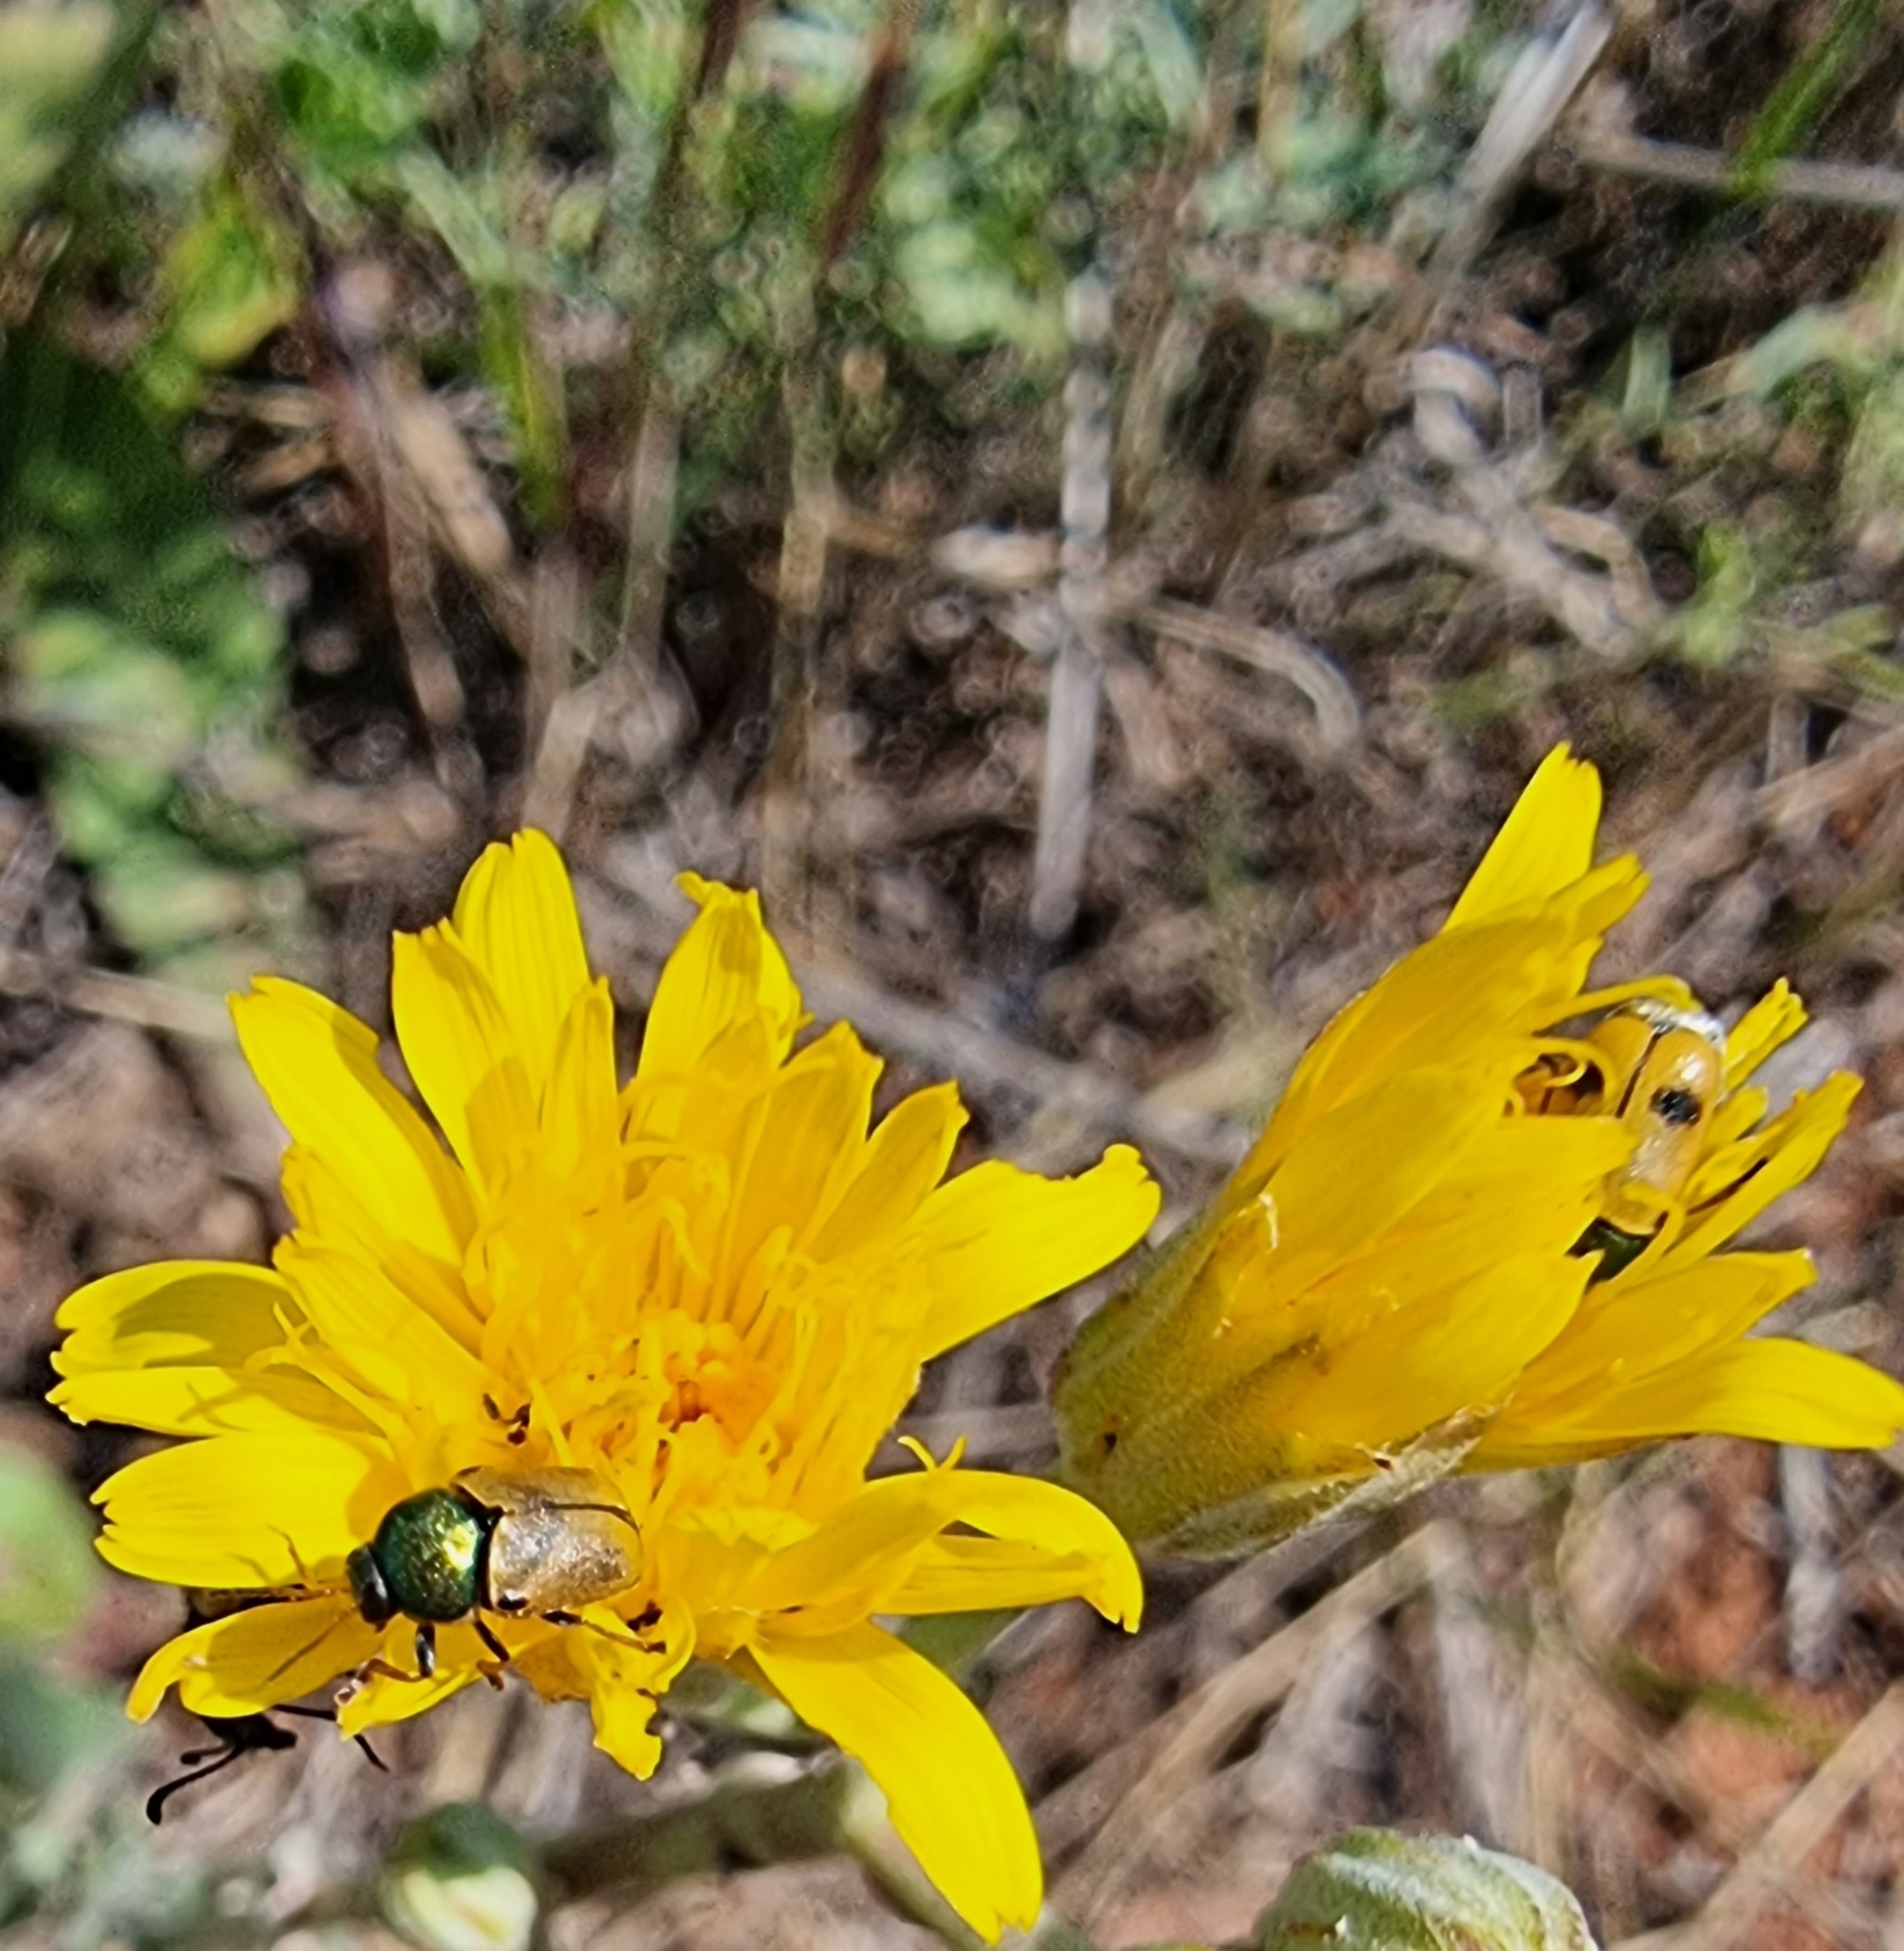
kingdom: Animalia
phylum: Arthropoda
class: Insecta
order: Coleoptera
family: Chrysomelidae
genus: Cryptocephalus
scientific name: Cryptocephalus laetus
